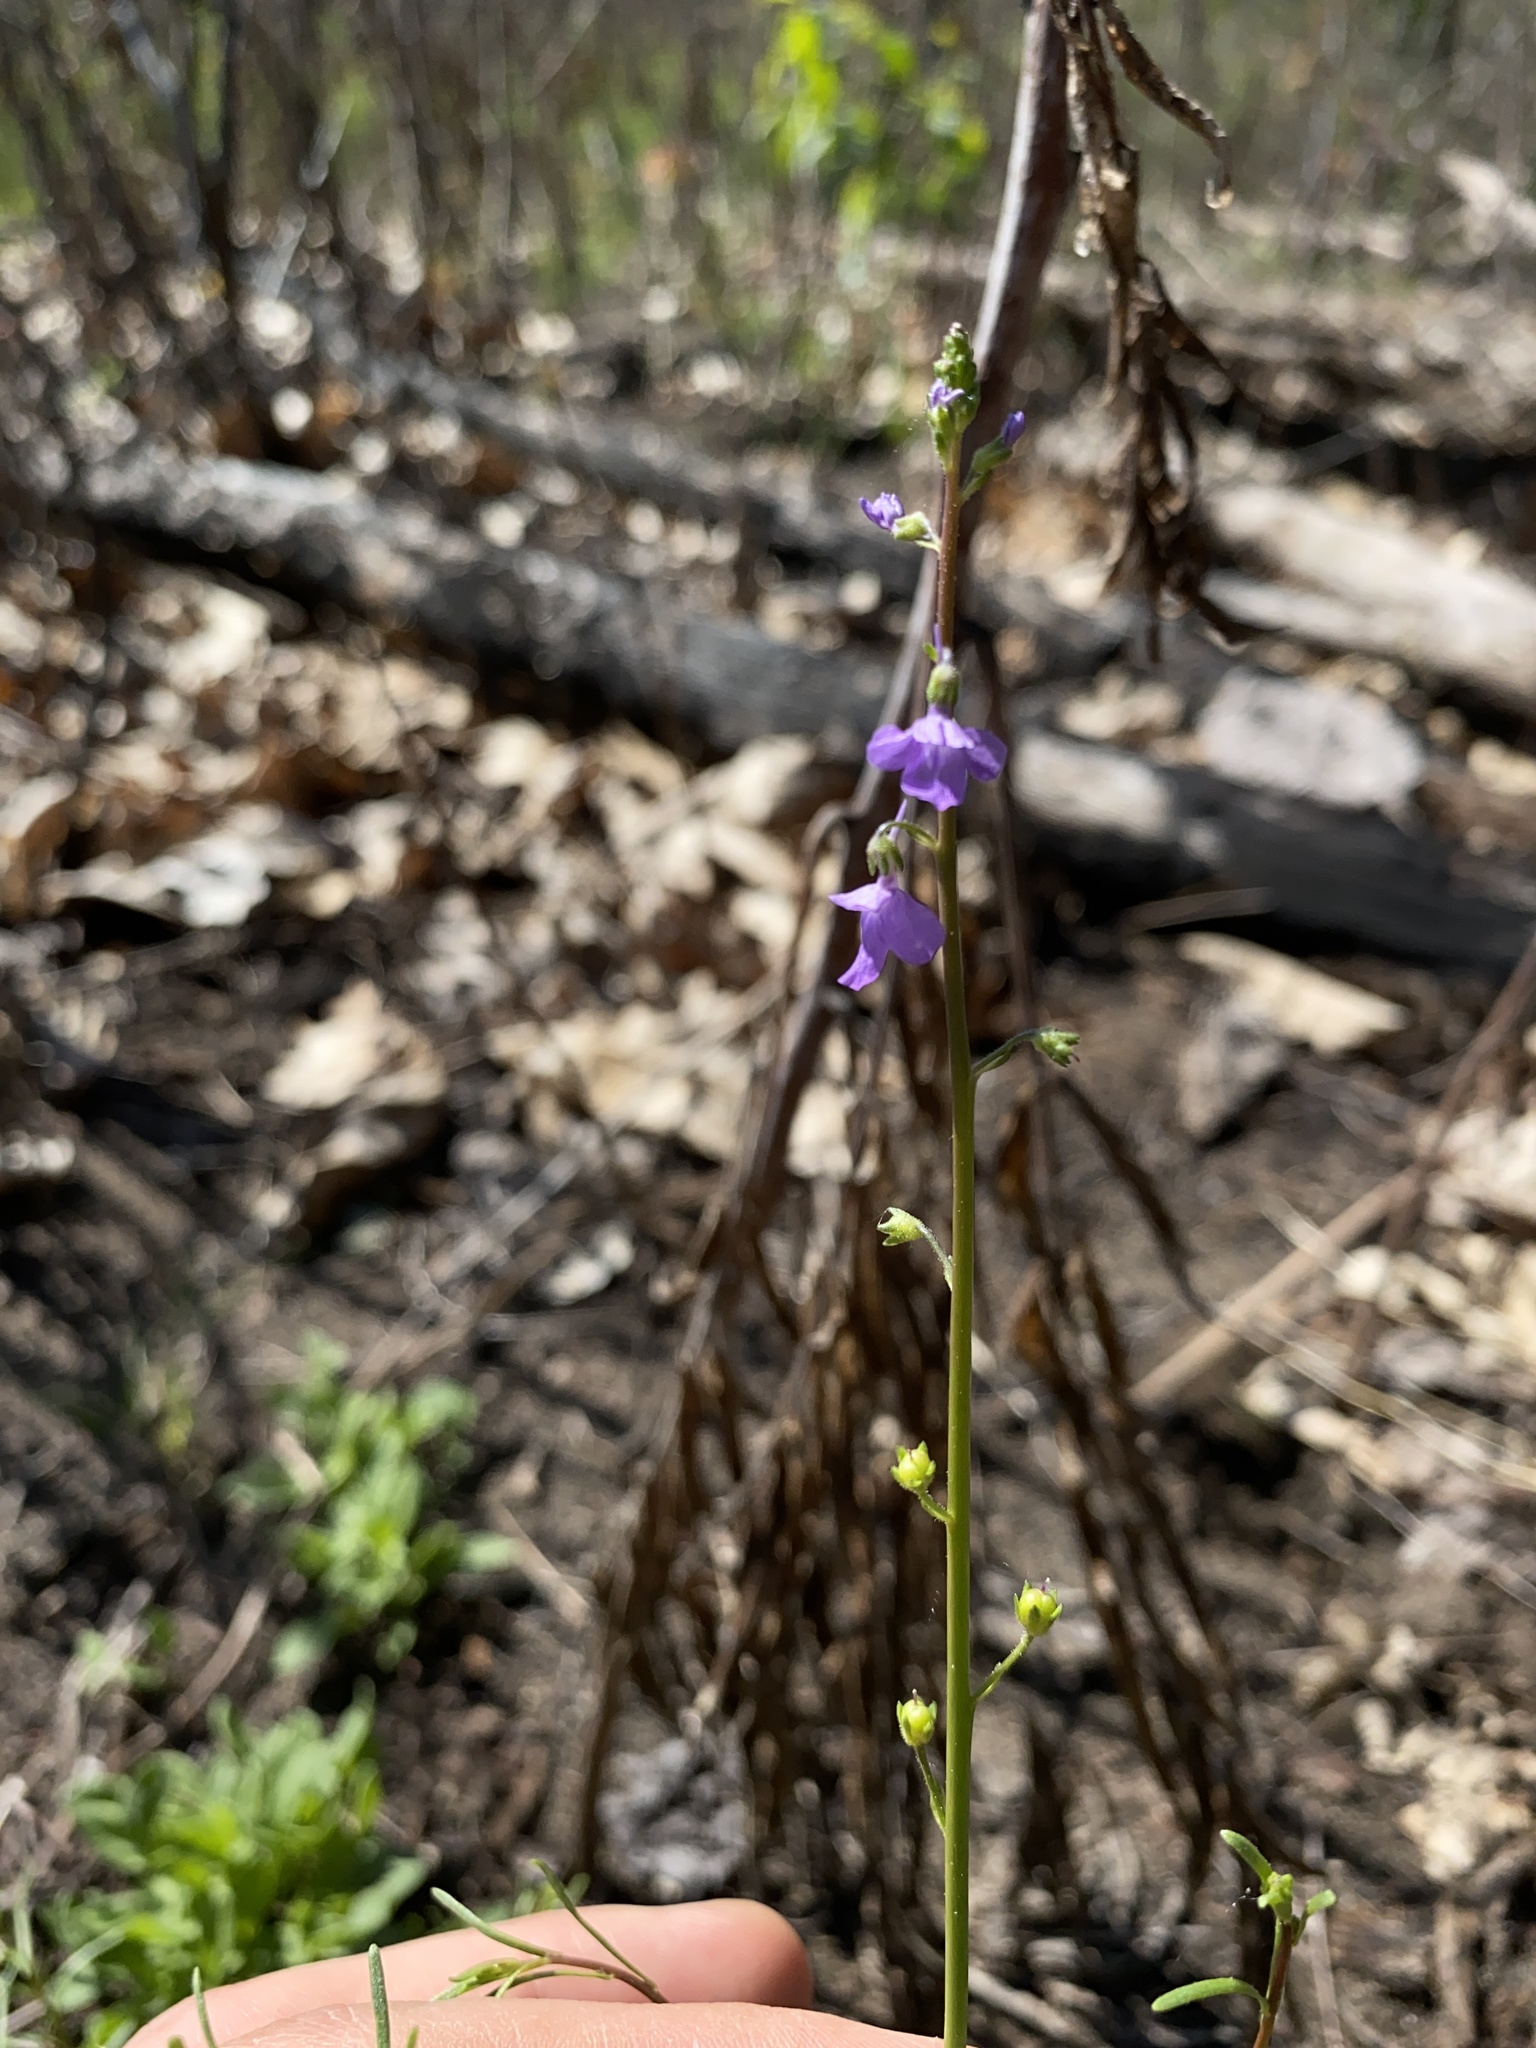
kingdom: Plantae
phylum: Tracheophyta
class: Magnoliopsida
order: Lamiales
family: Plantaginaceae
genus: Nuttallanthus
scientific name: Nuttallanthus canadensis
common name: Blue toadflax
